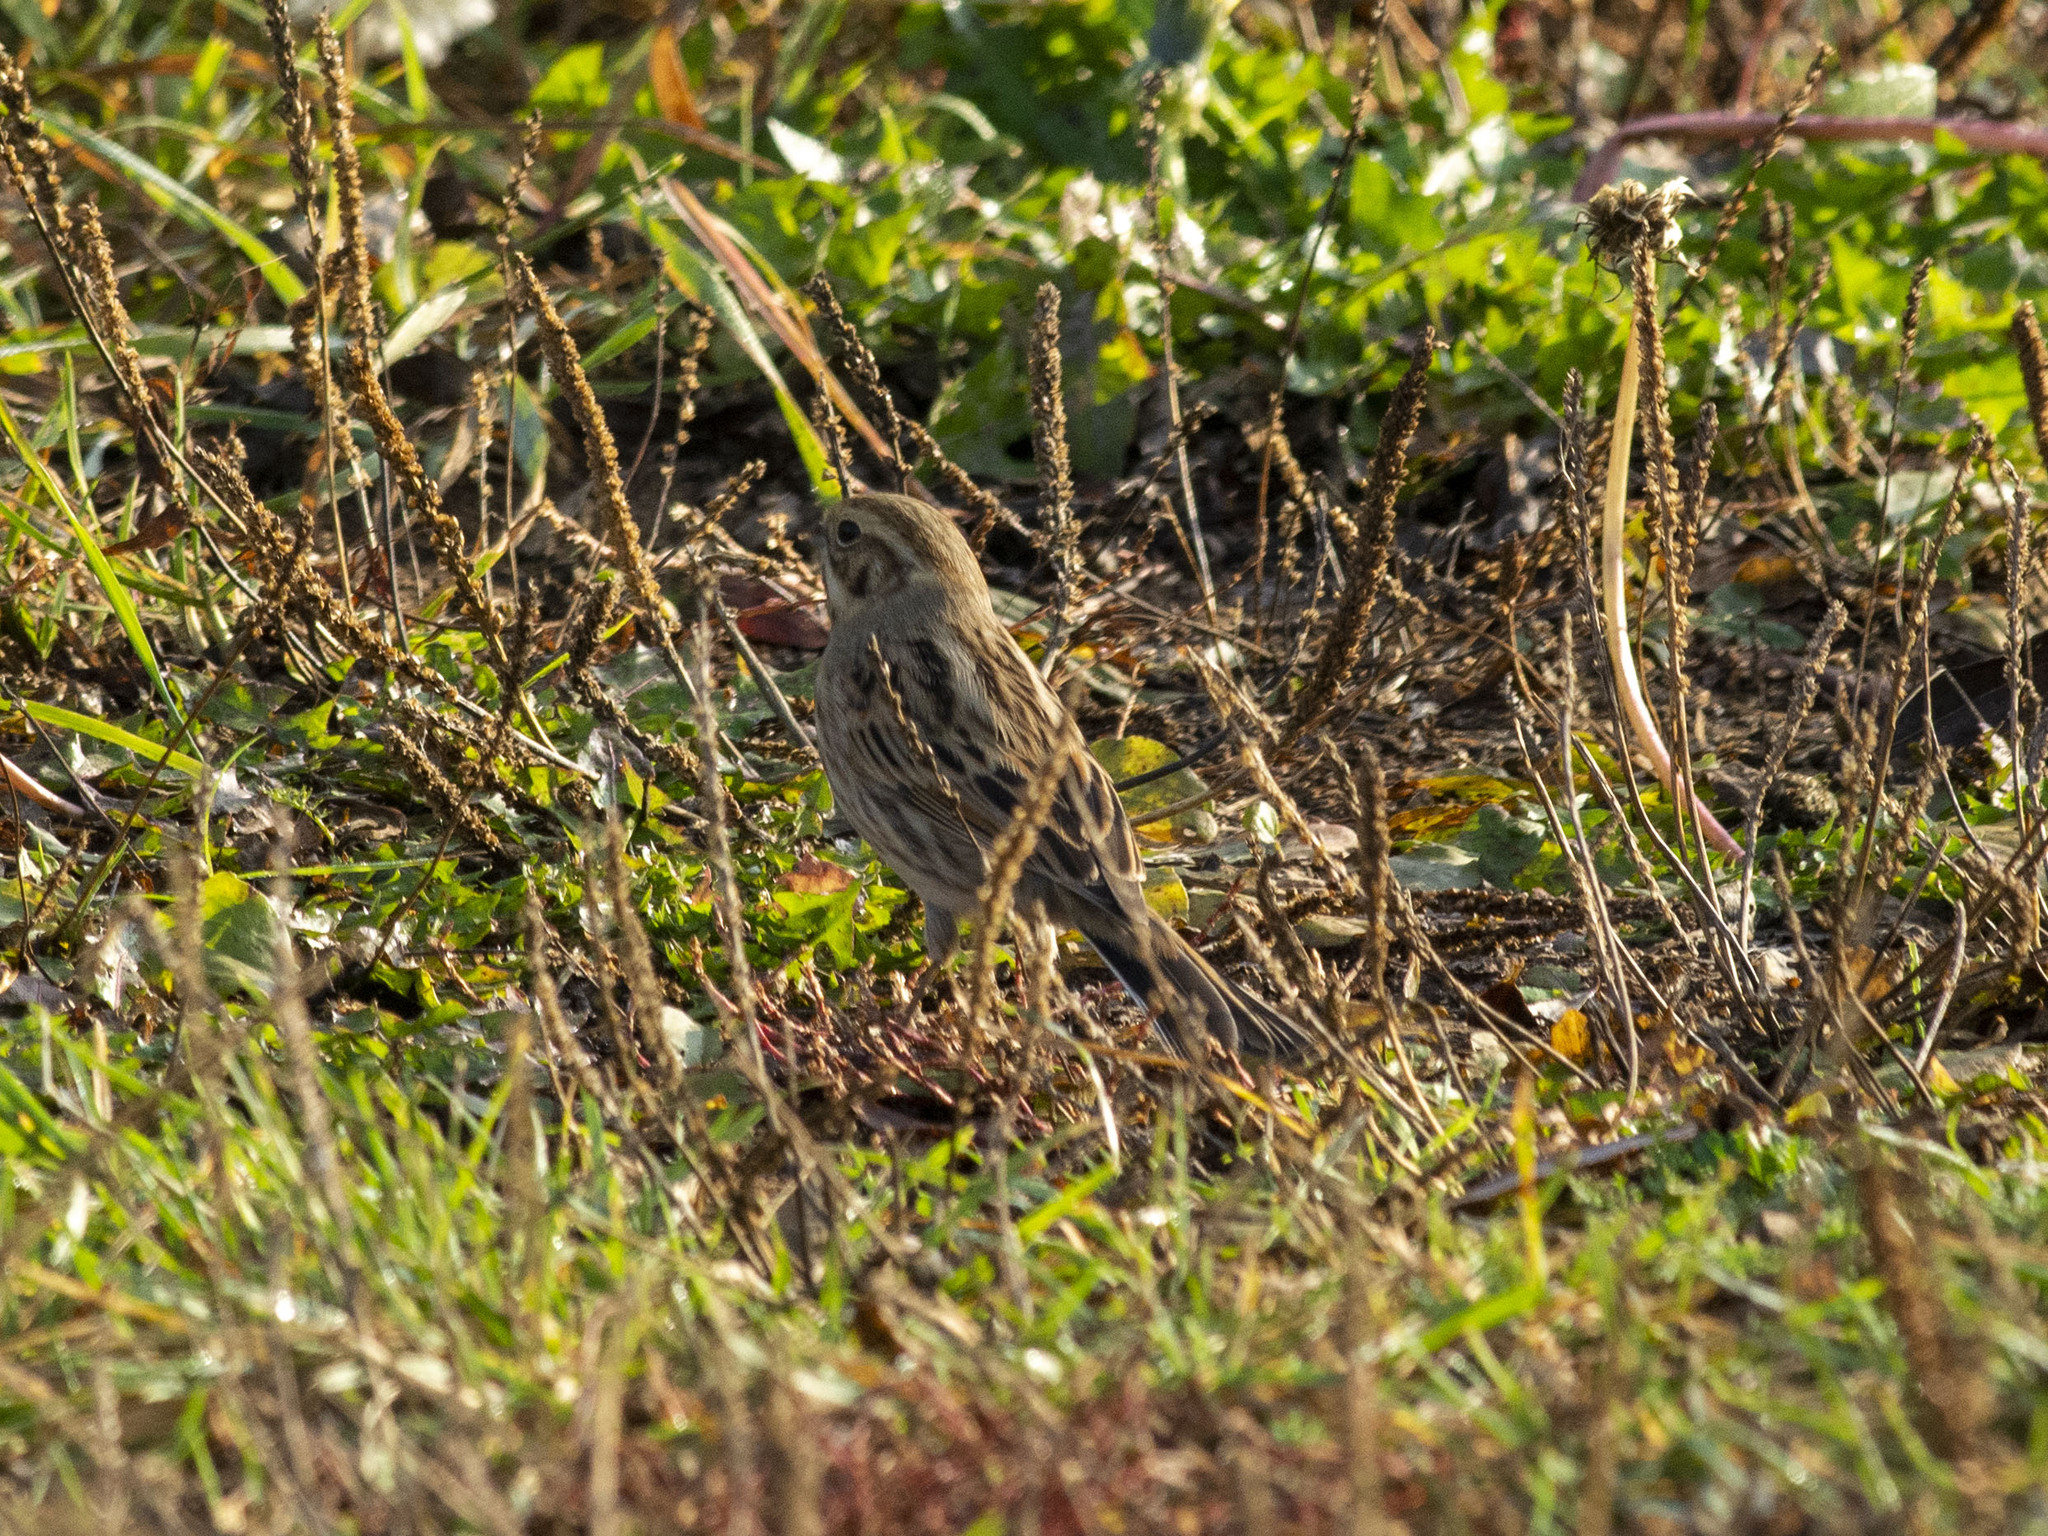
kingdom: Animalia
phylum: Chordata
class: Aves
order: Passeriformes
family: Emberizidae
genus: Emberiza
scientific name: Emberiza schoeniclus
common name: Reed bunting
